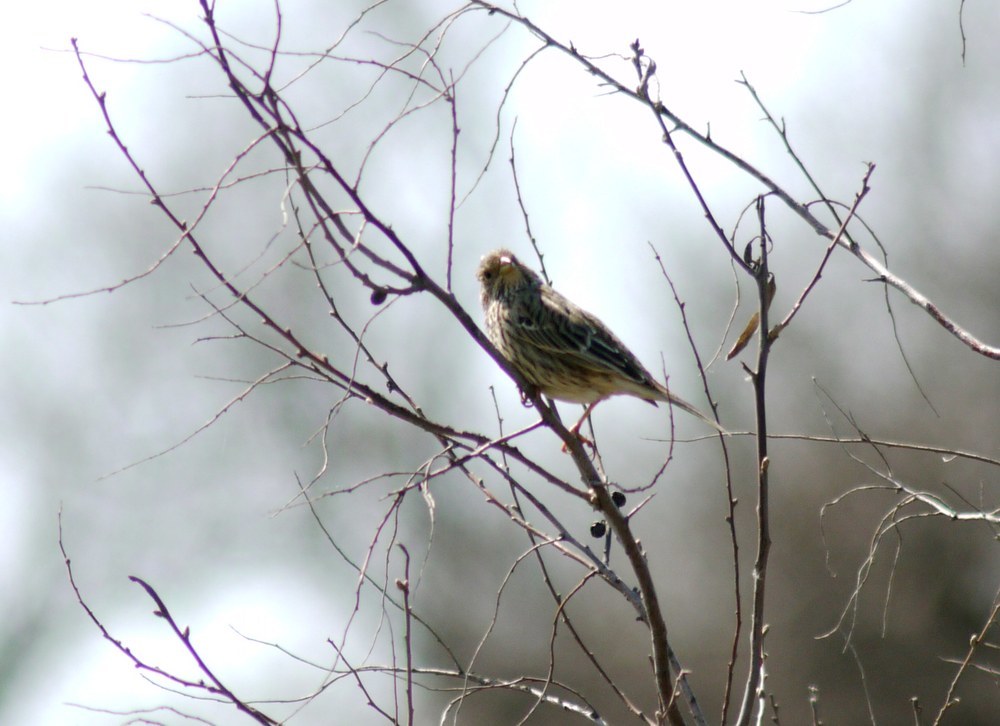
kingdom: Animalia
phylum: Chordata
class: Aves
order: Passeriformes
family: Emberizidae
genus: Emberiza
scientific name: Emberiza calandra
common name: Corn bunting
